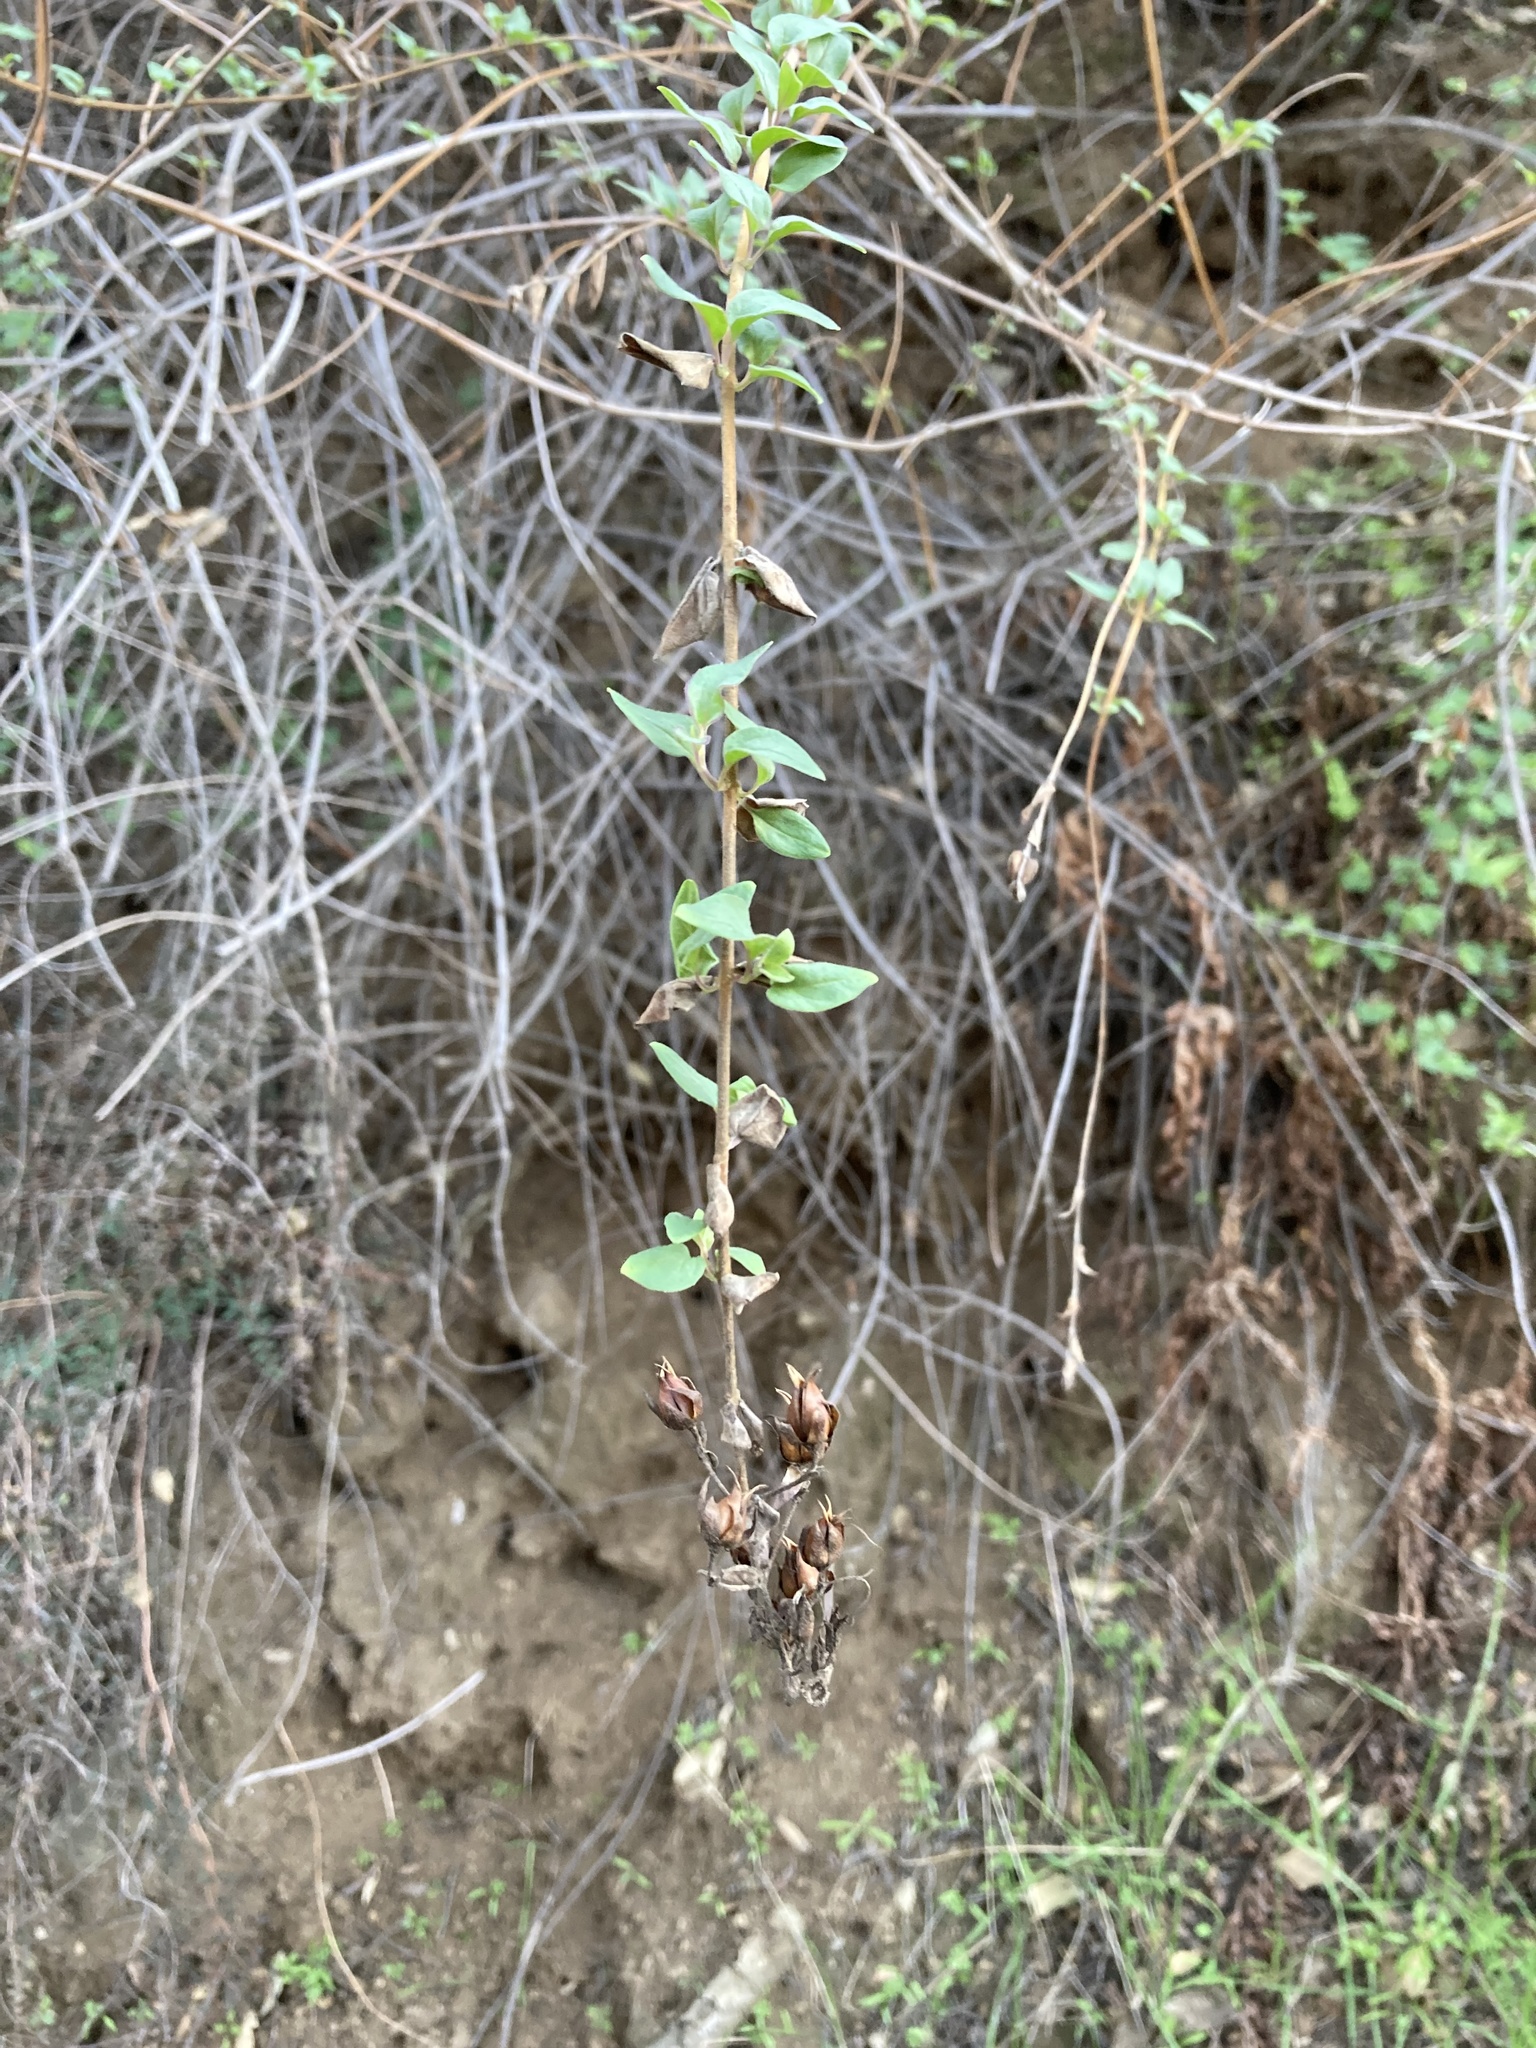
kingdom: Plantae
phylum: Tracheophyta
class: Magnoliopsida
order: Lamiales
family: Plantaginaceae
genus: Keckiella
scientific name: Keckiella cordifolia
